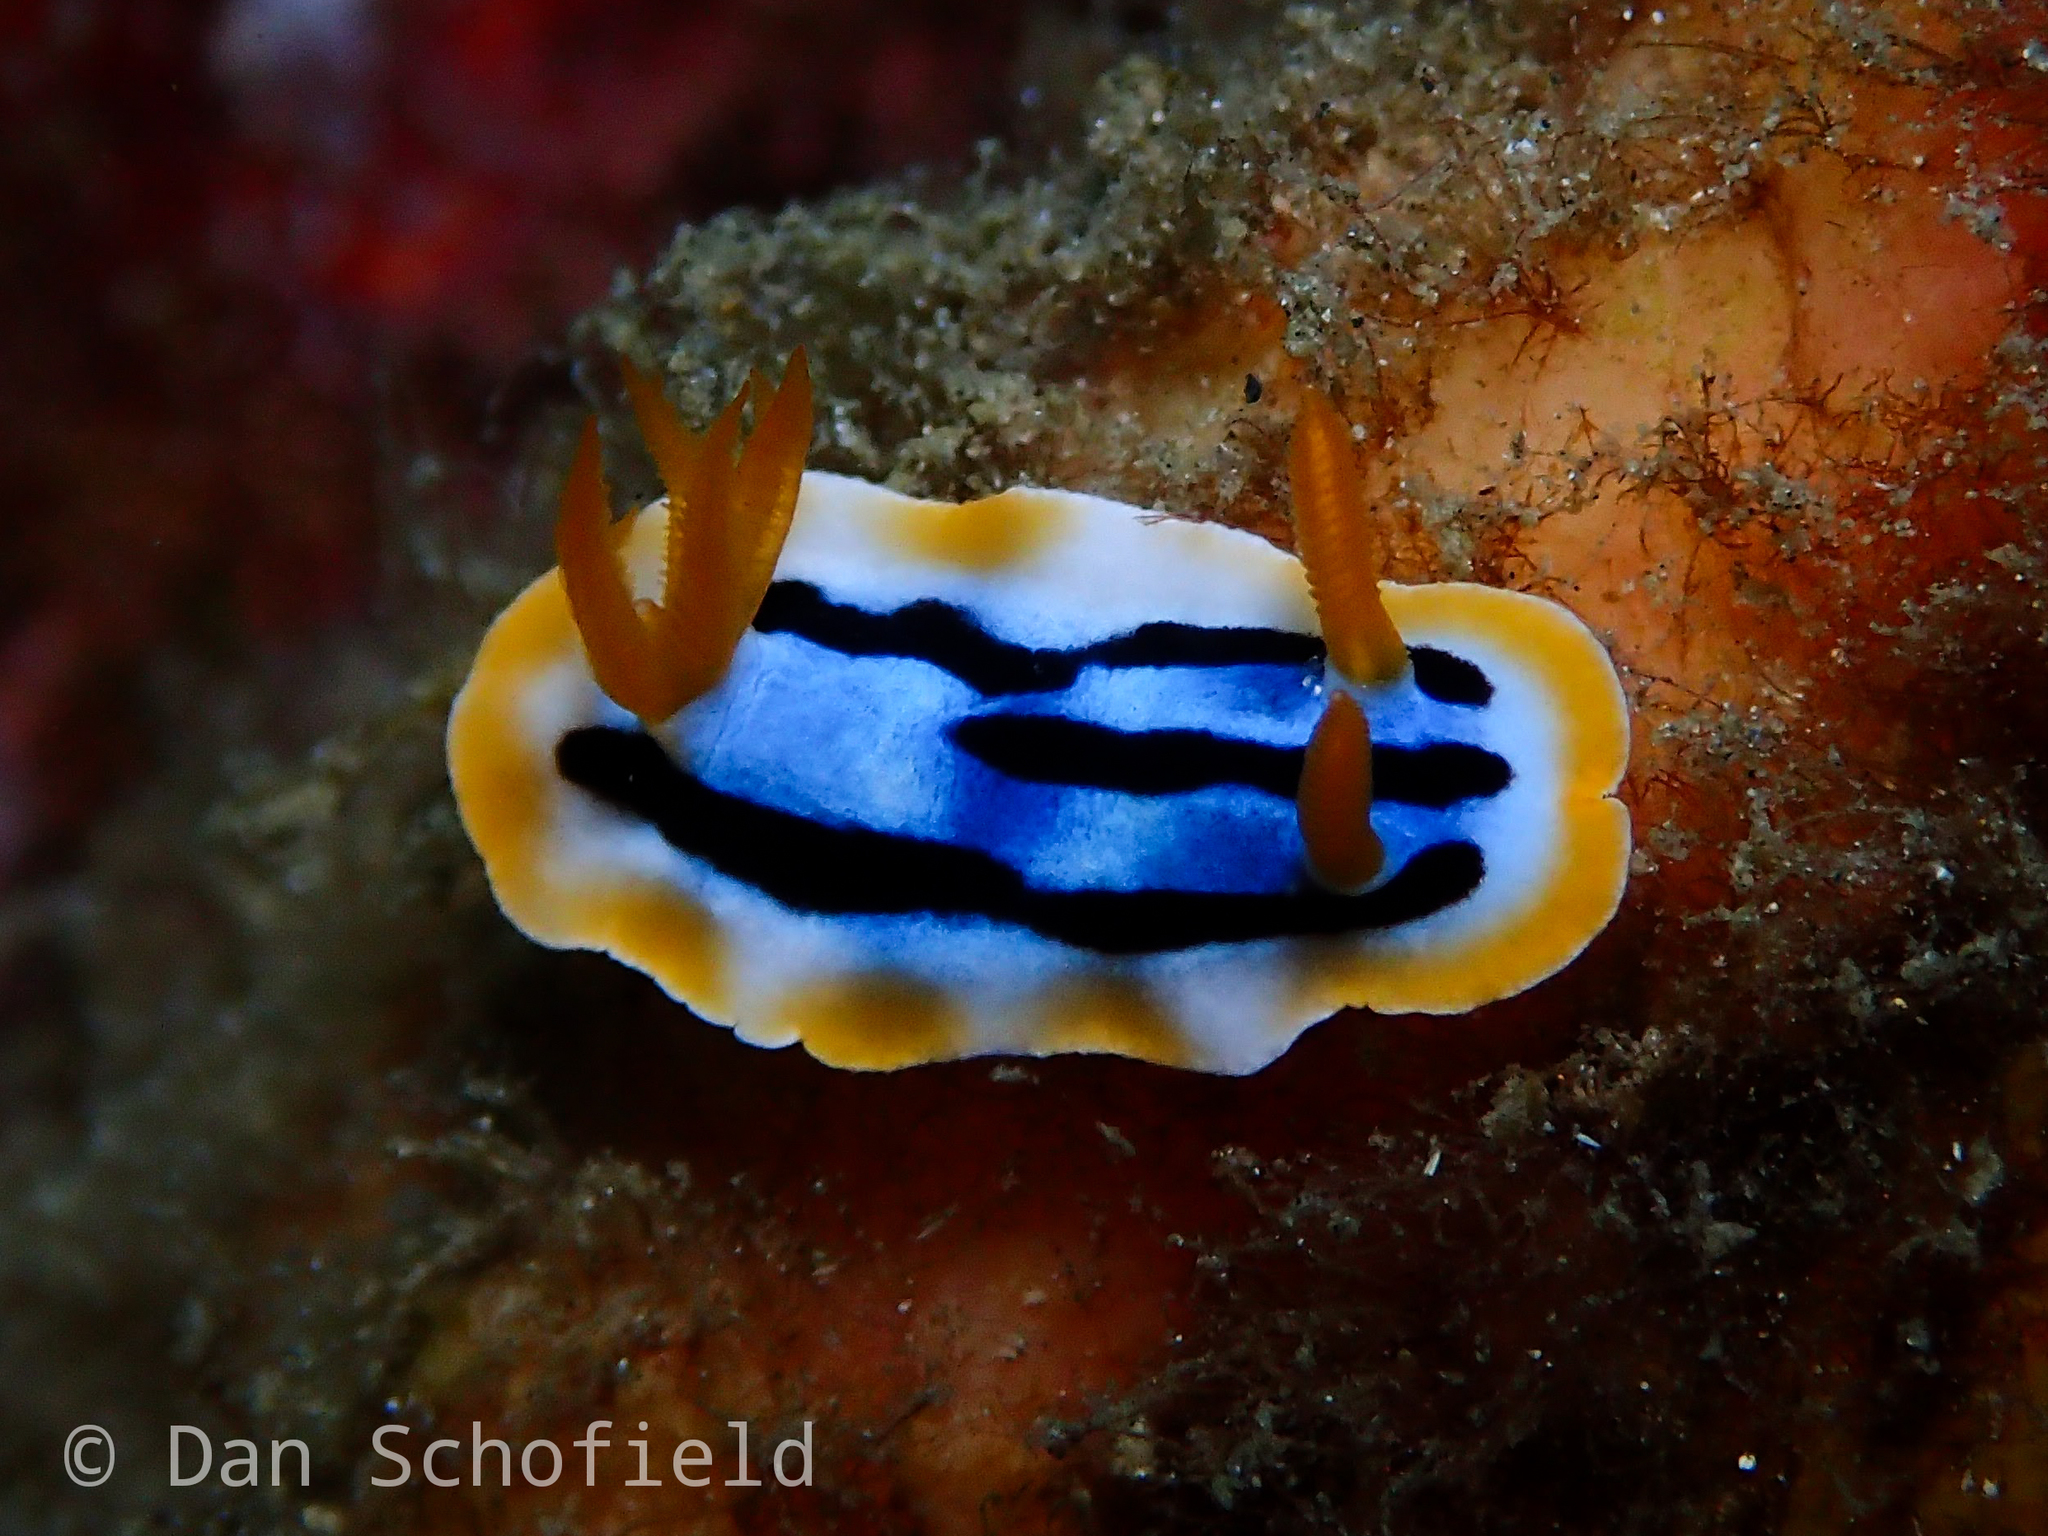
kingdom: Animalia
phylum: Mollusca
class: Gastropoda
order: Nudibranchia
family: Chromodorididae
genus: Chromodoris
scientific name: Chromodoris strigata
